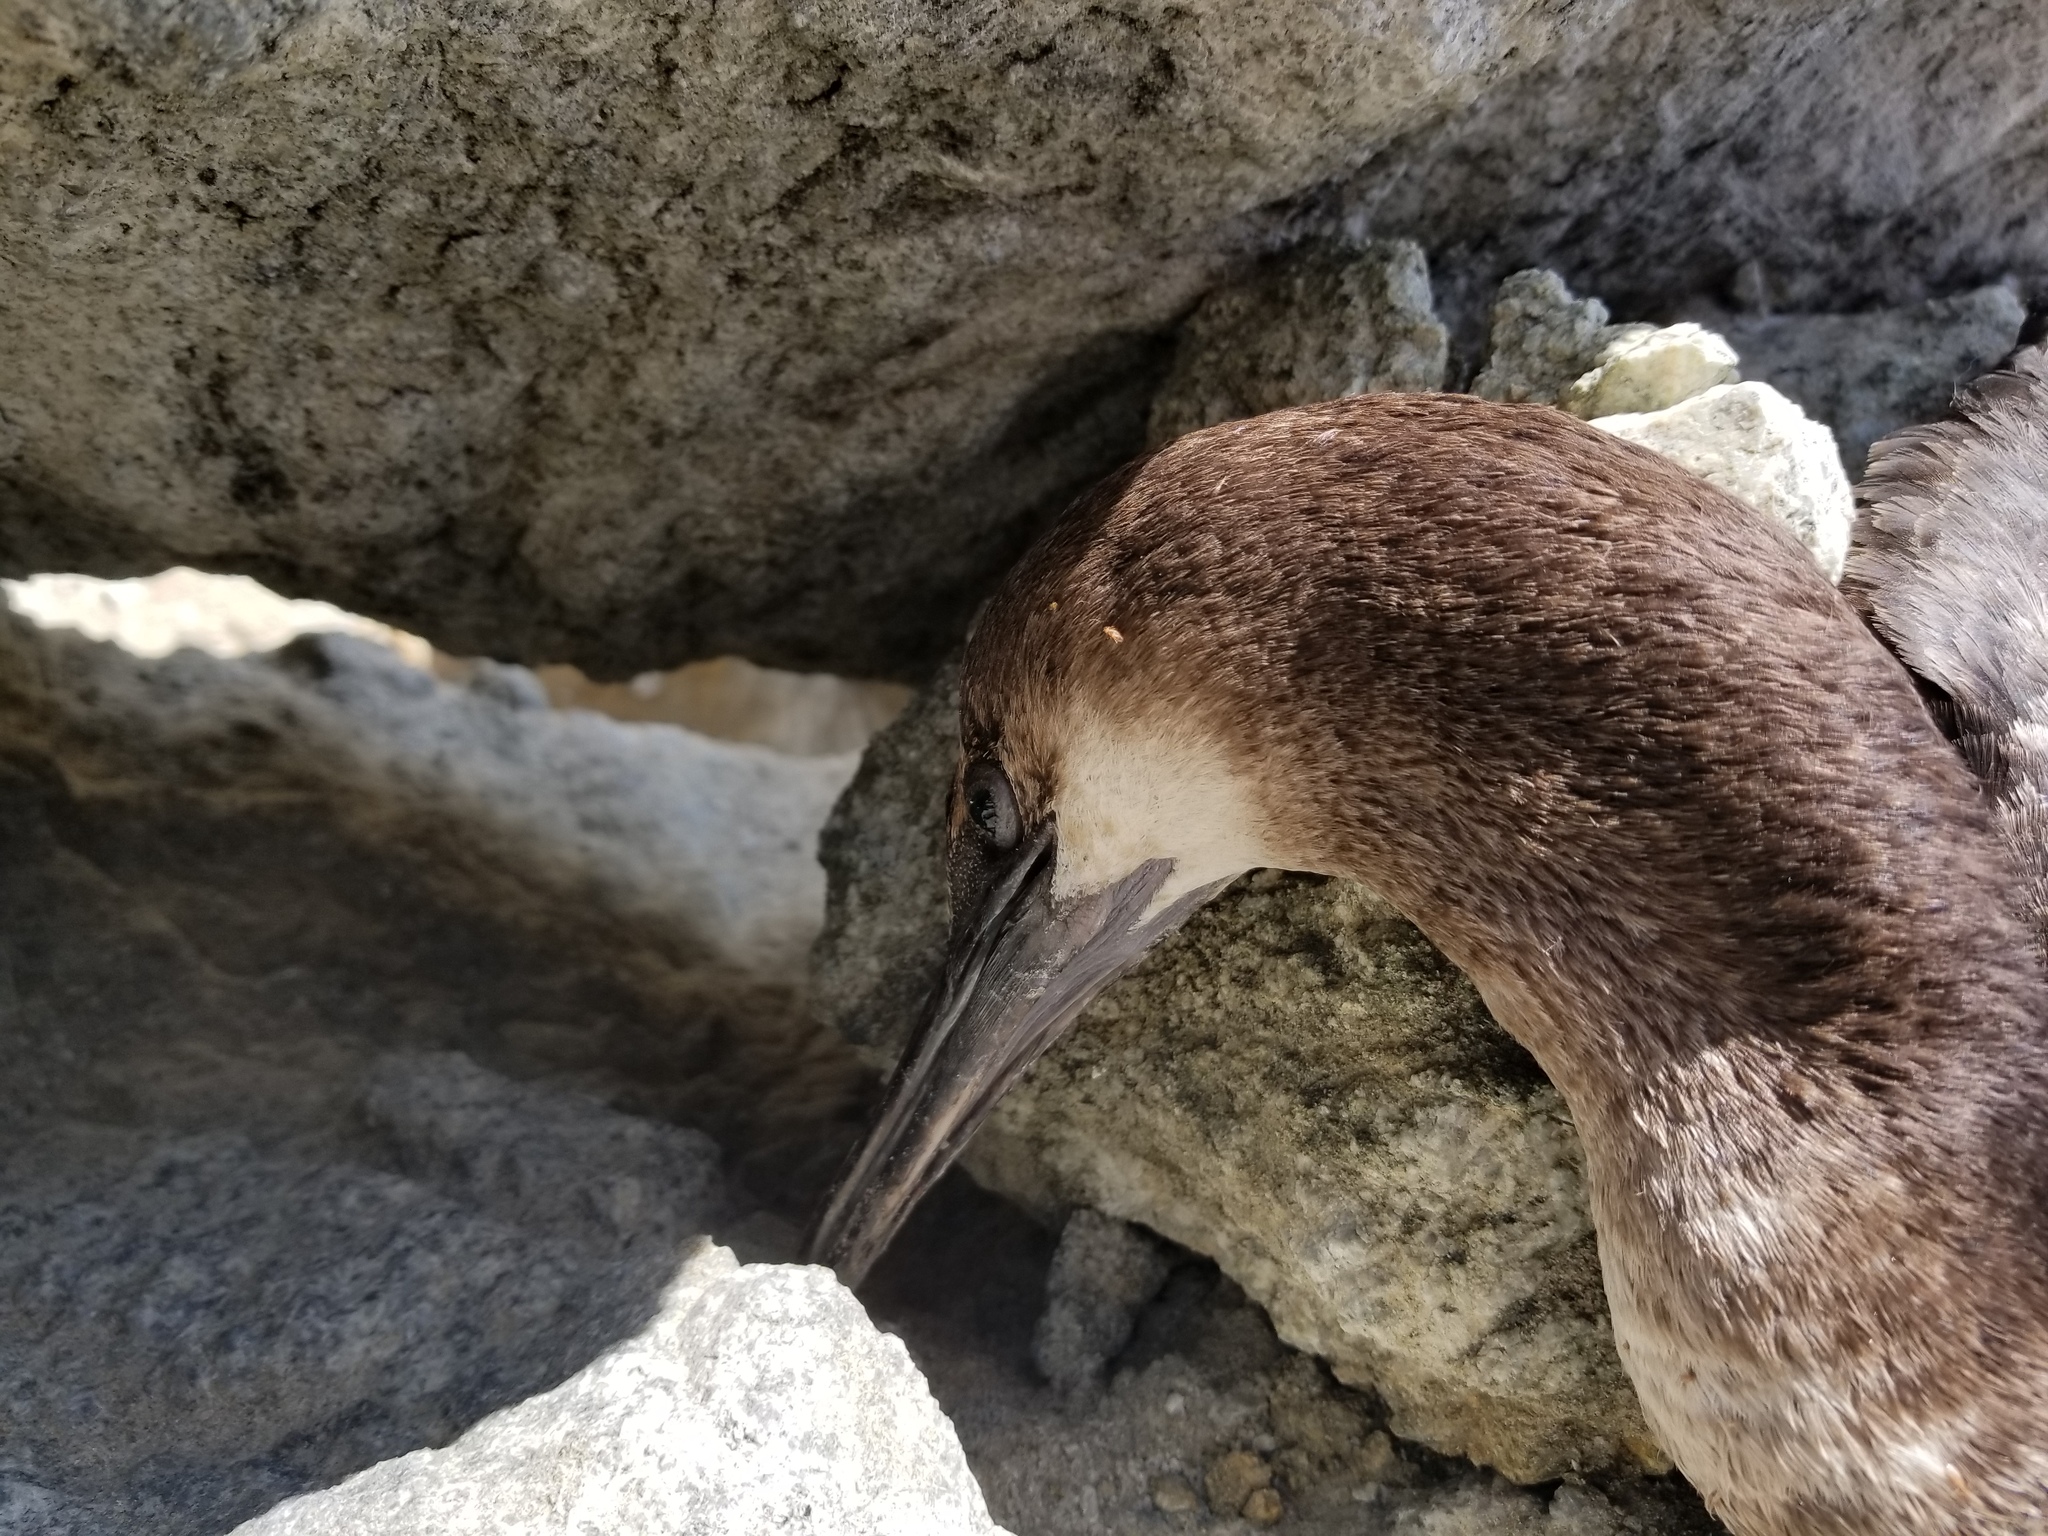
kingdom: Animalia
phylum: Chordata
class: Aves
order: Suliformes
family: Phalacrocoracidae
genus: Urile
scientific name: Urile penicillatus
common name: Brandt's cormorant
